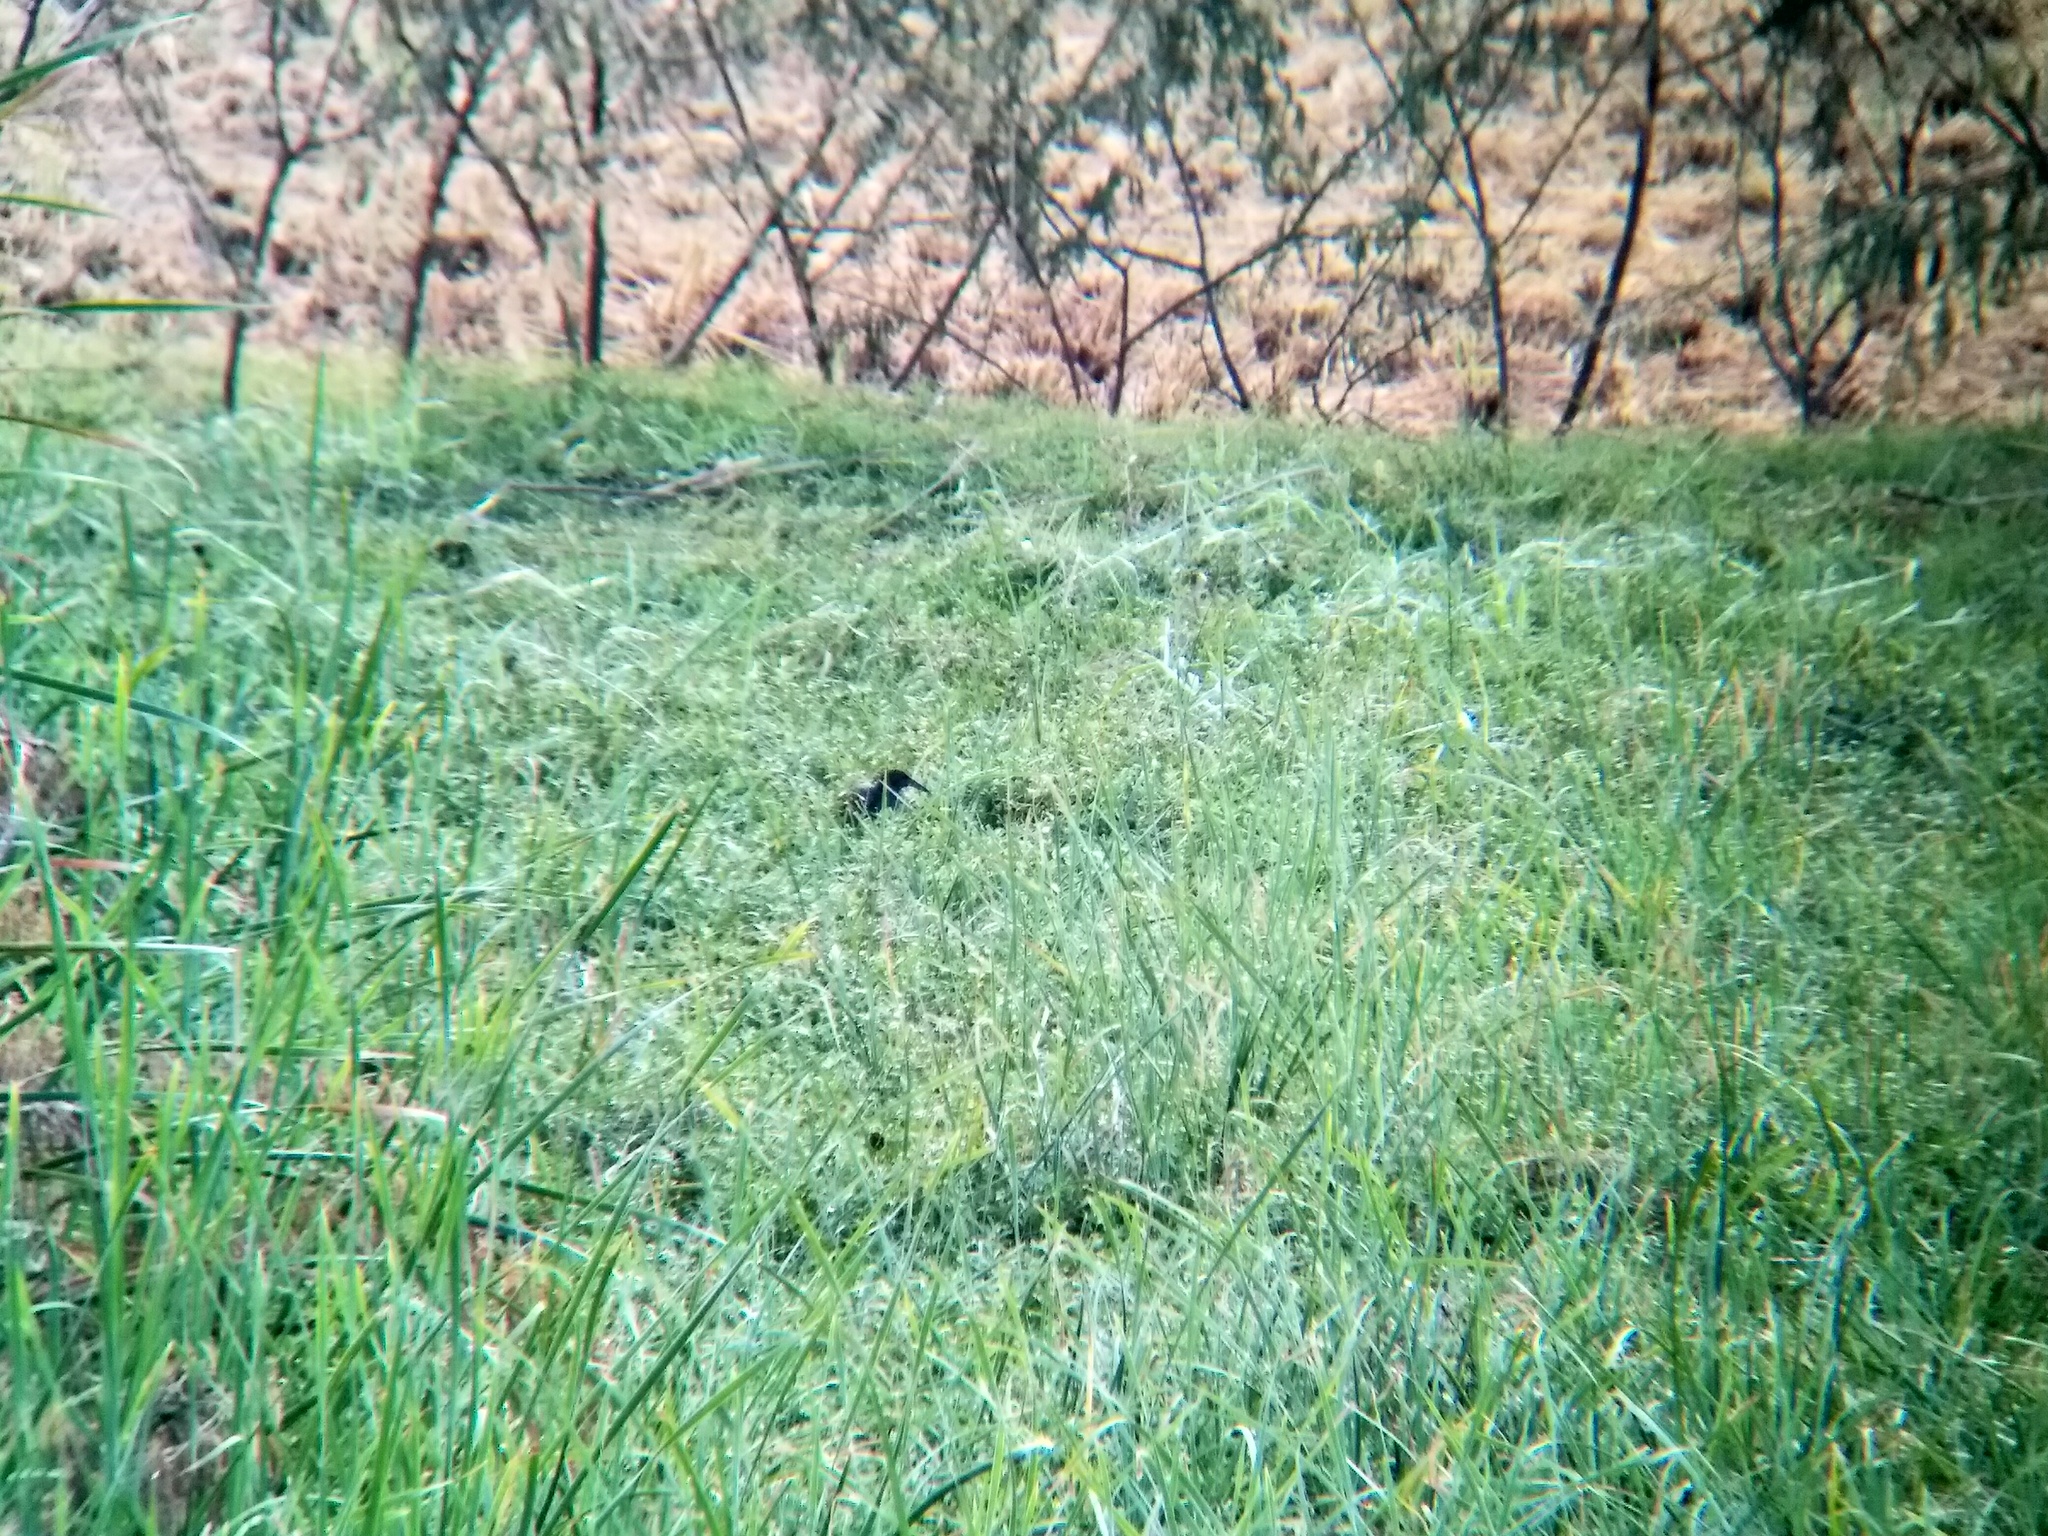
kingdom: Animalia
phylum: Chordata
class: Aves
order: Gruiformes
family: Rallidae
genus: Gallirallus
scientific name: Gallirallus striatus
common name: Slaty-breasted rail
